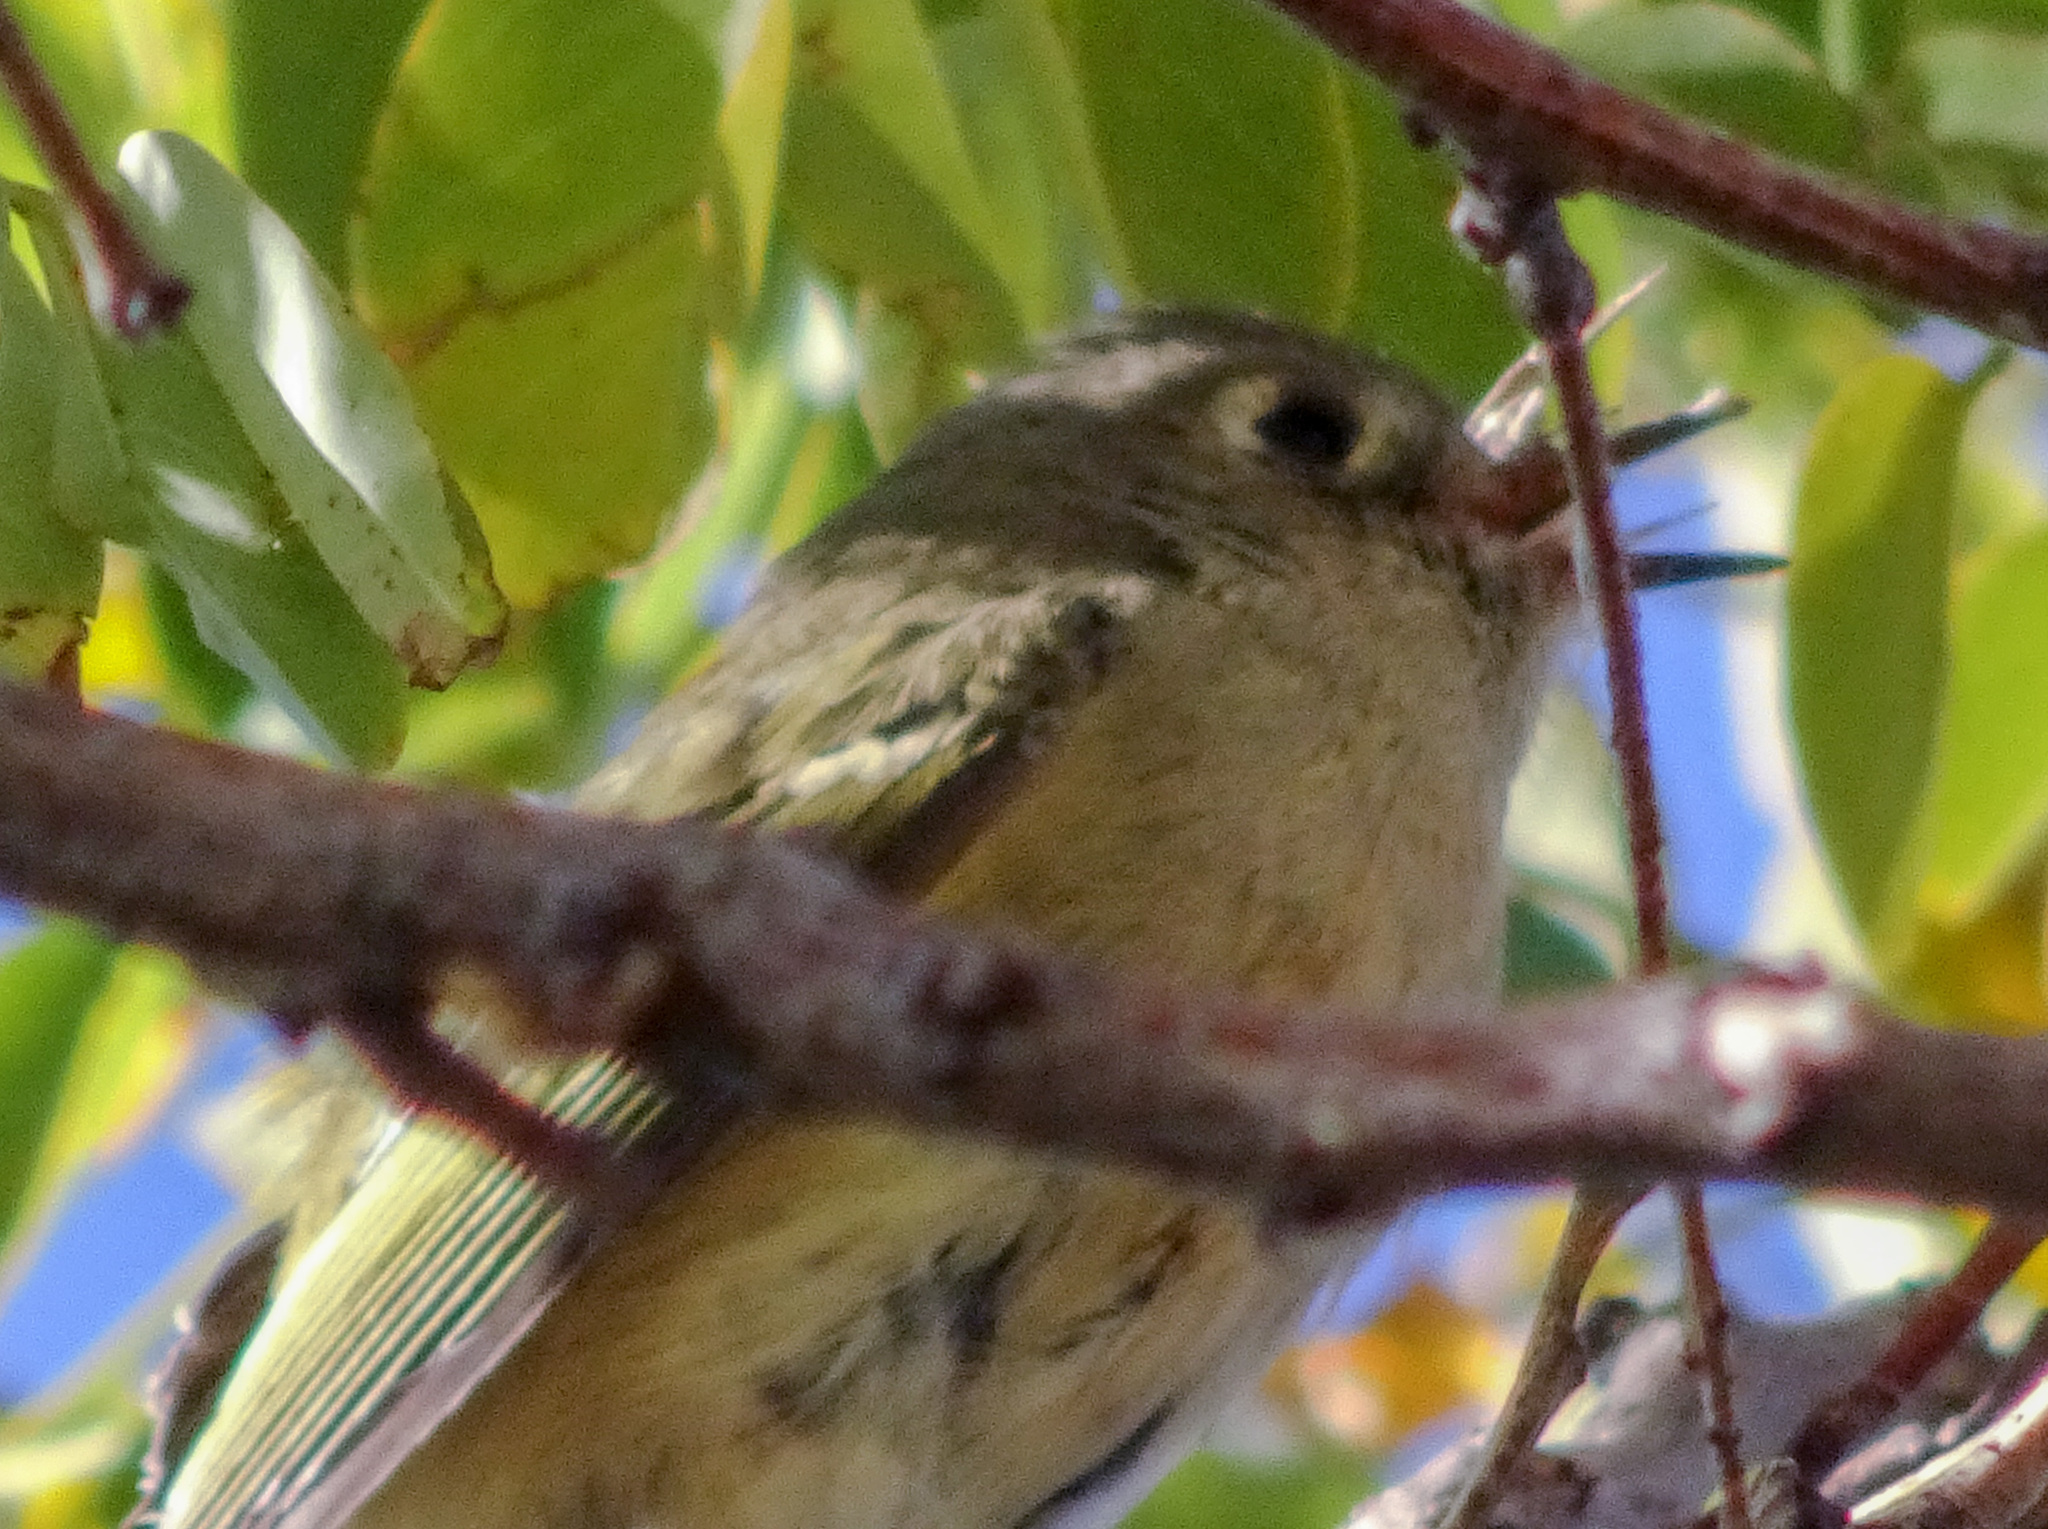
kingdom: Animalia
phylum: Chordata
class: Aves
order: Passeriformes
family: Regulidae
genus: Regulus
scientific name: Regulus calendula
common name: Ruby-crowned kinglet
